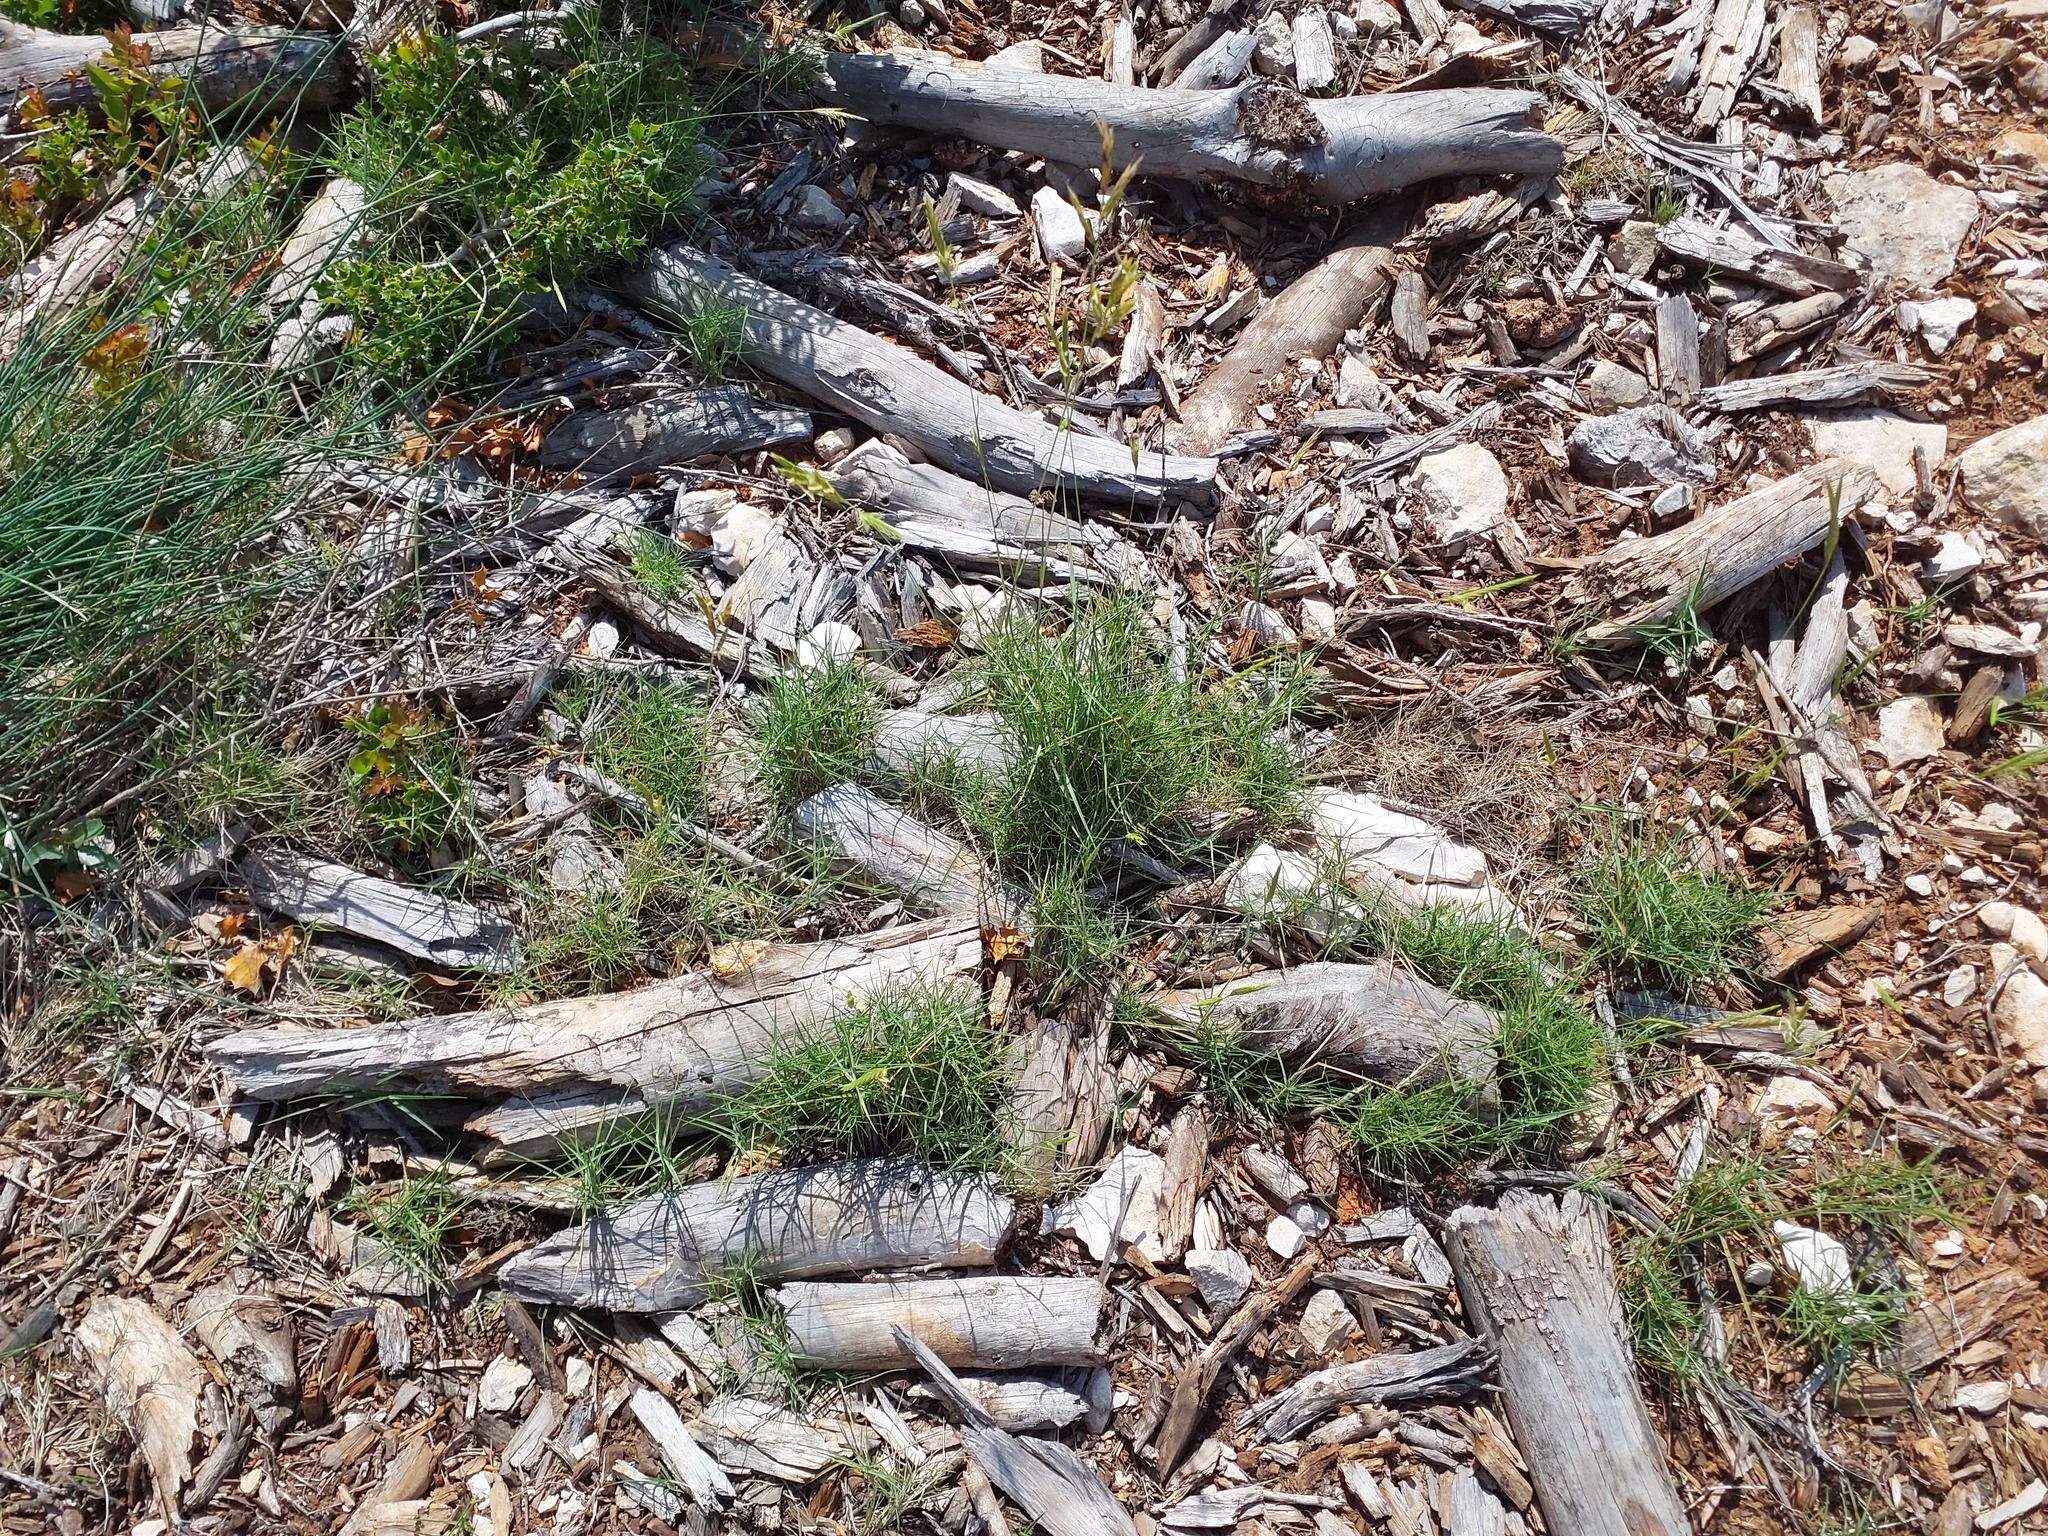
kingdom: Plantae
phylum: Tracheophyta
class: Liliopsida
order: Poales
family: Poaceae
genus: Brachypodium
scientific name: Brachypodium retusum
